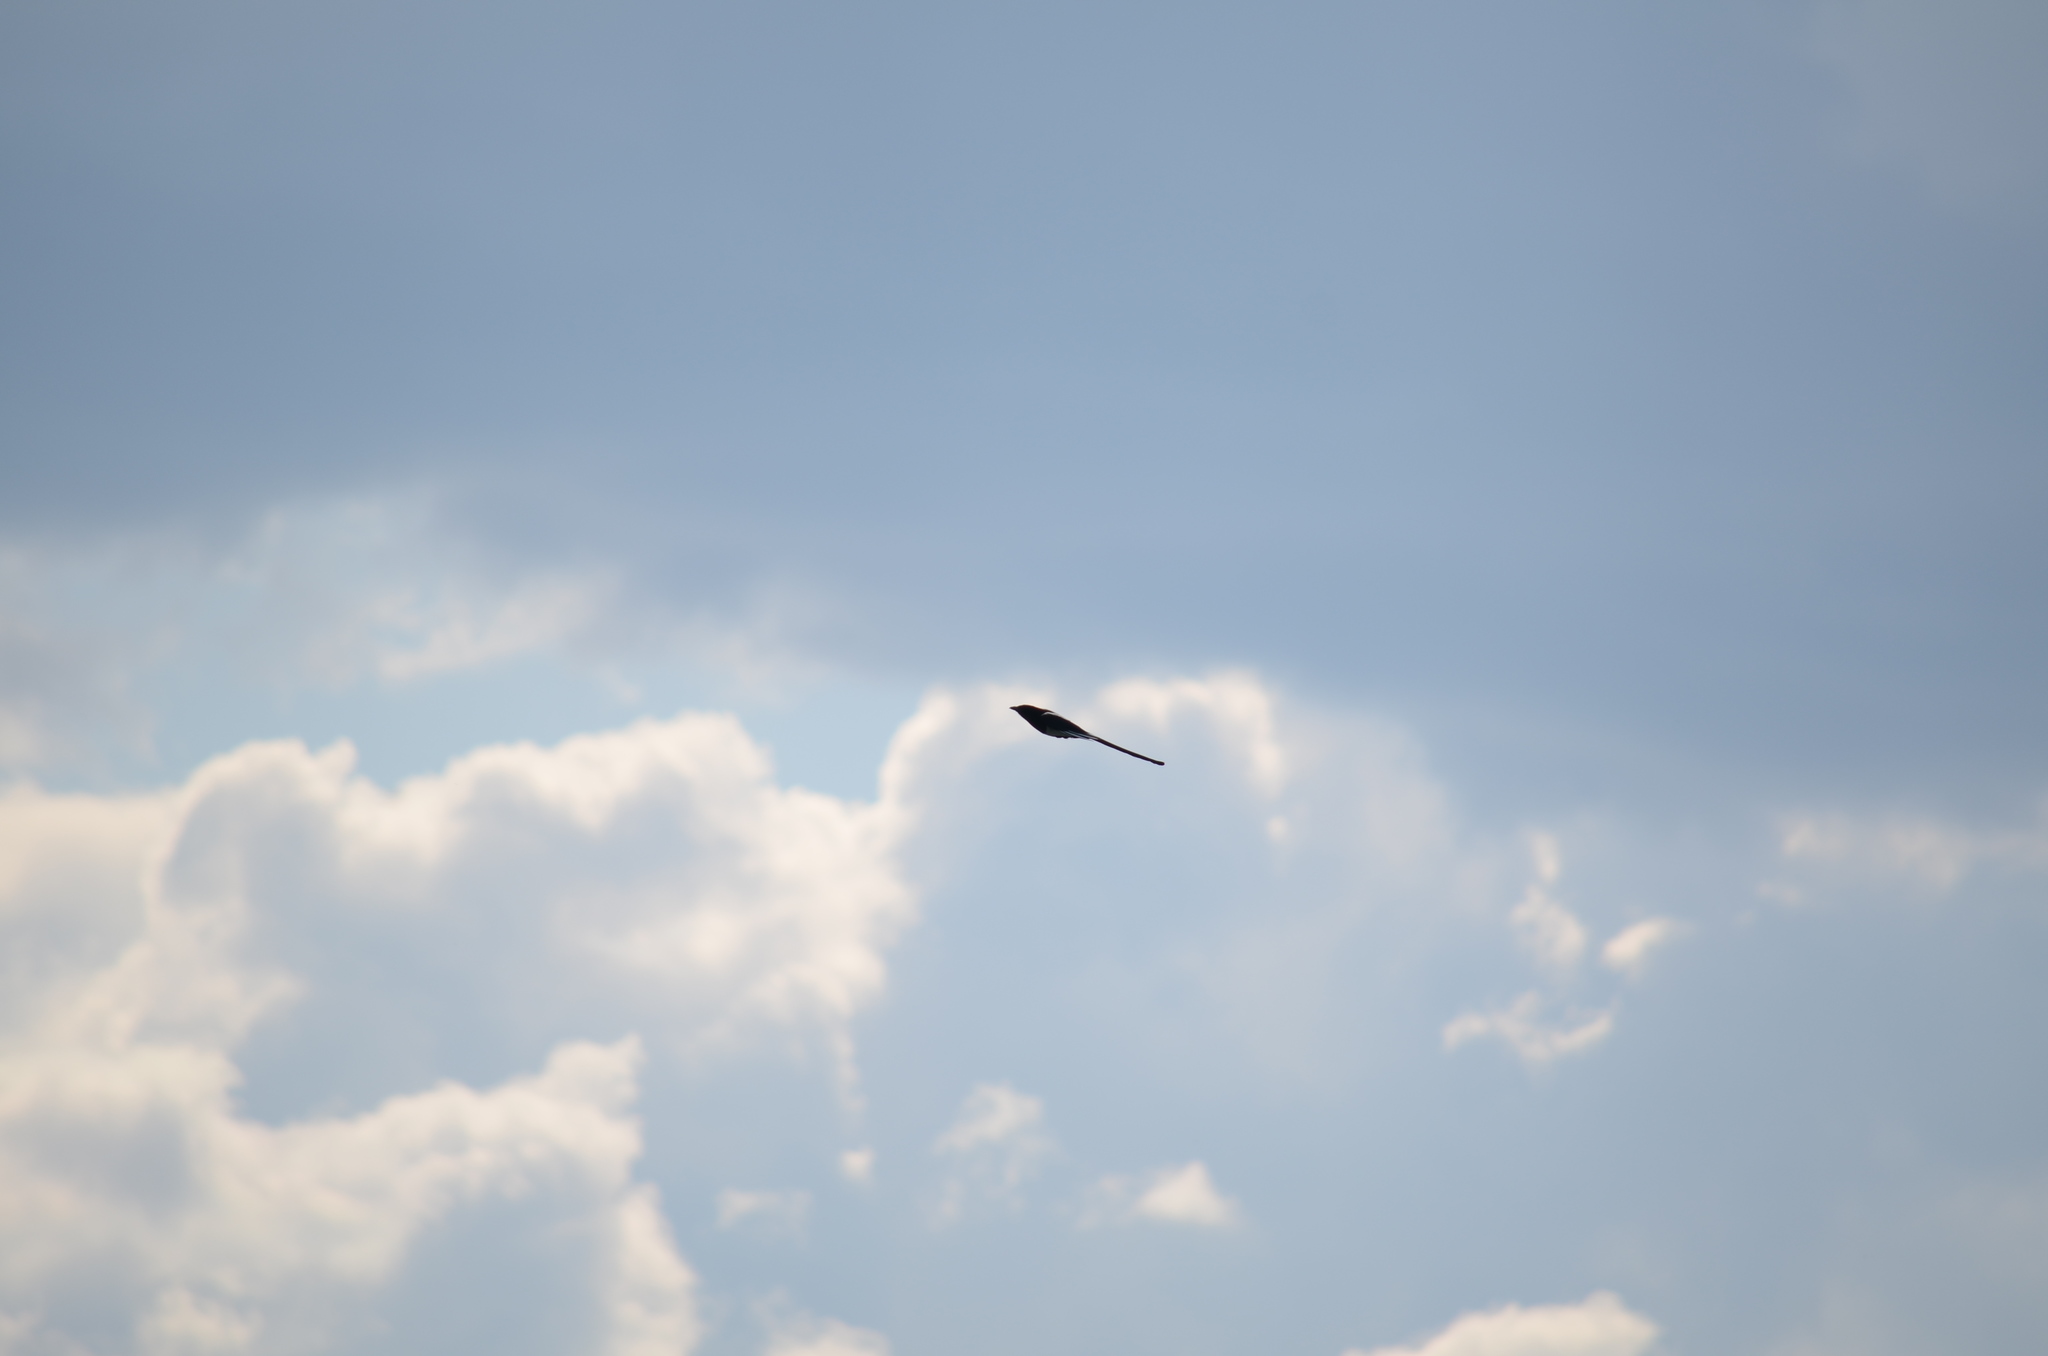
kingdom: Animalia
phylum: Chordata
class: Aves
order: Passeriformes
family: Corvidae
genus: Pica
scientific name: Pica hudsonia
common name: Black-billed magpie
